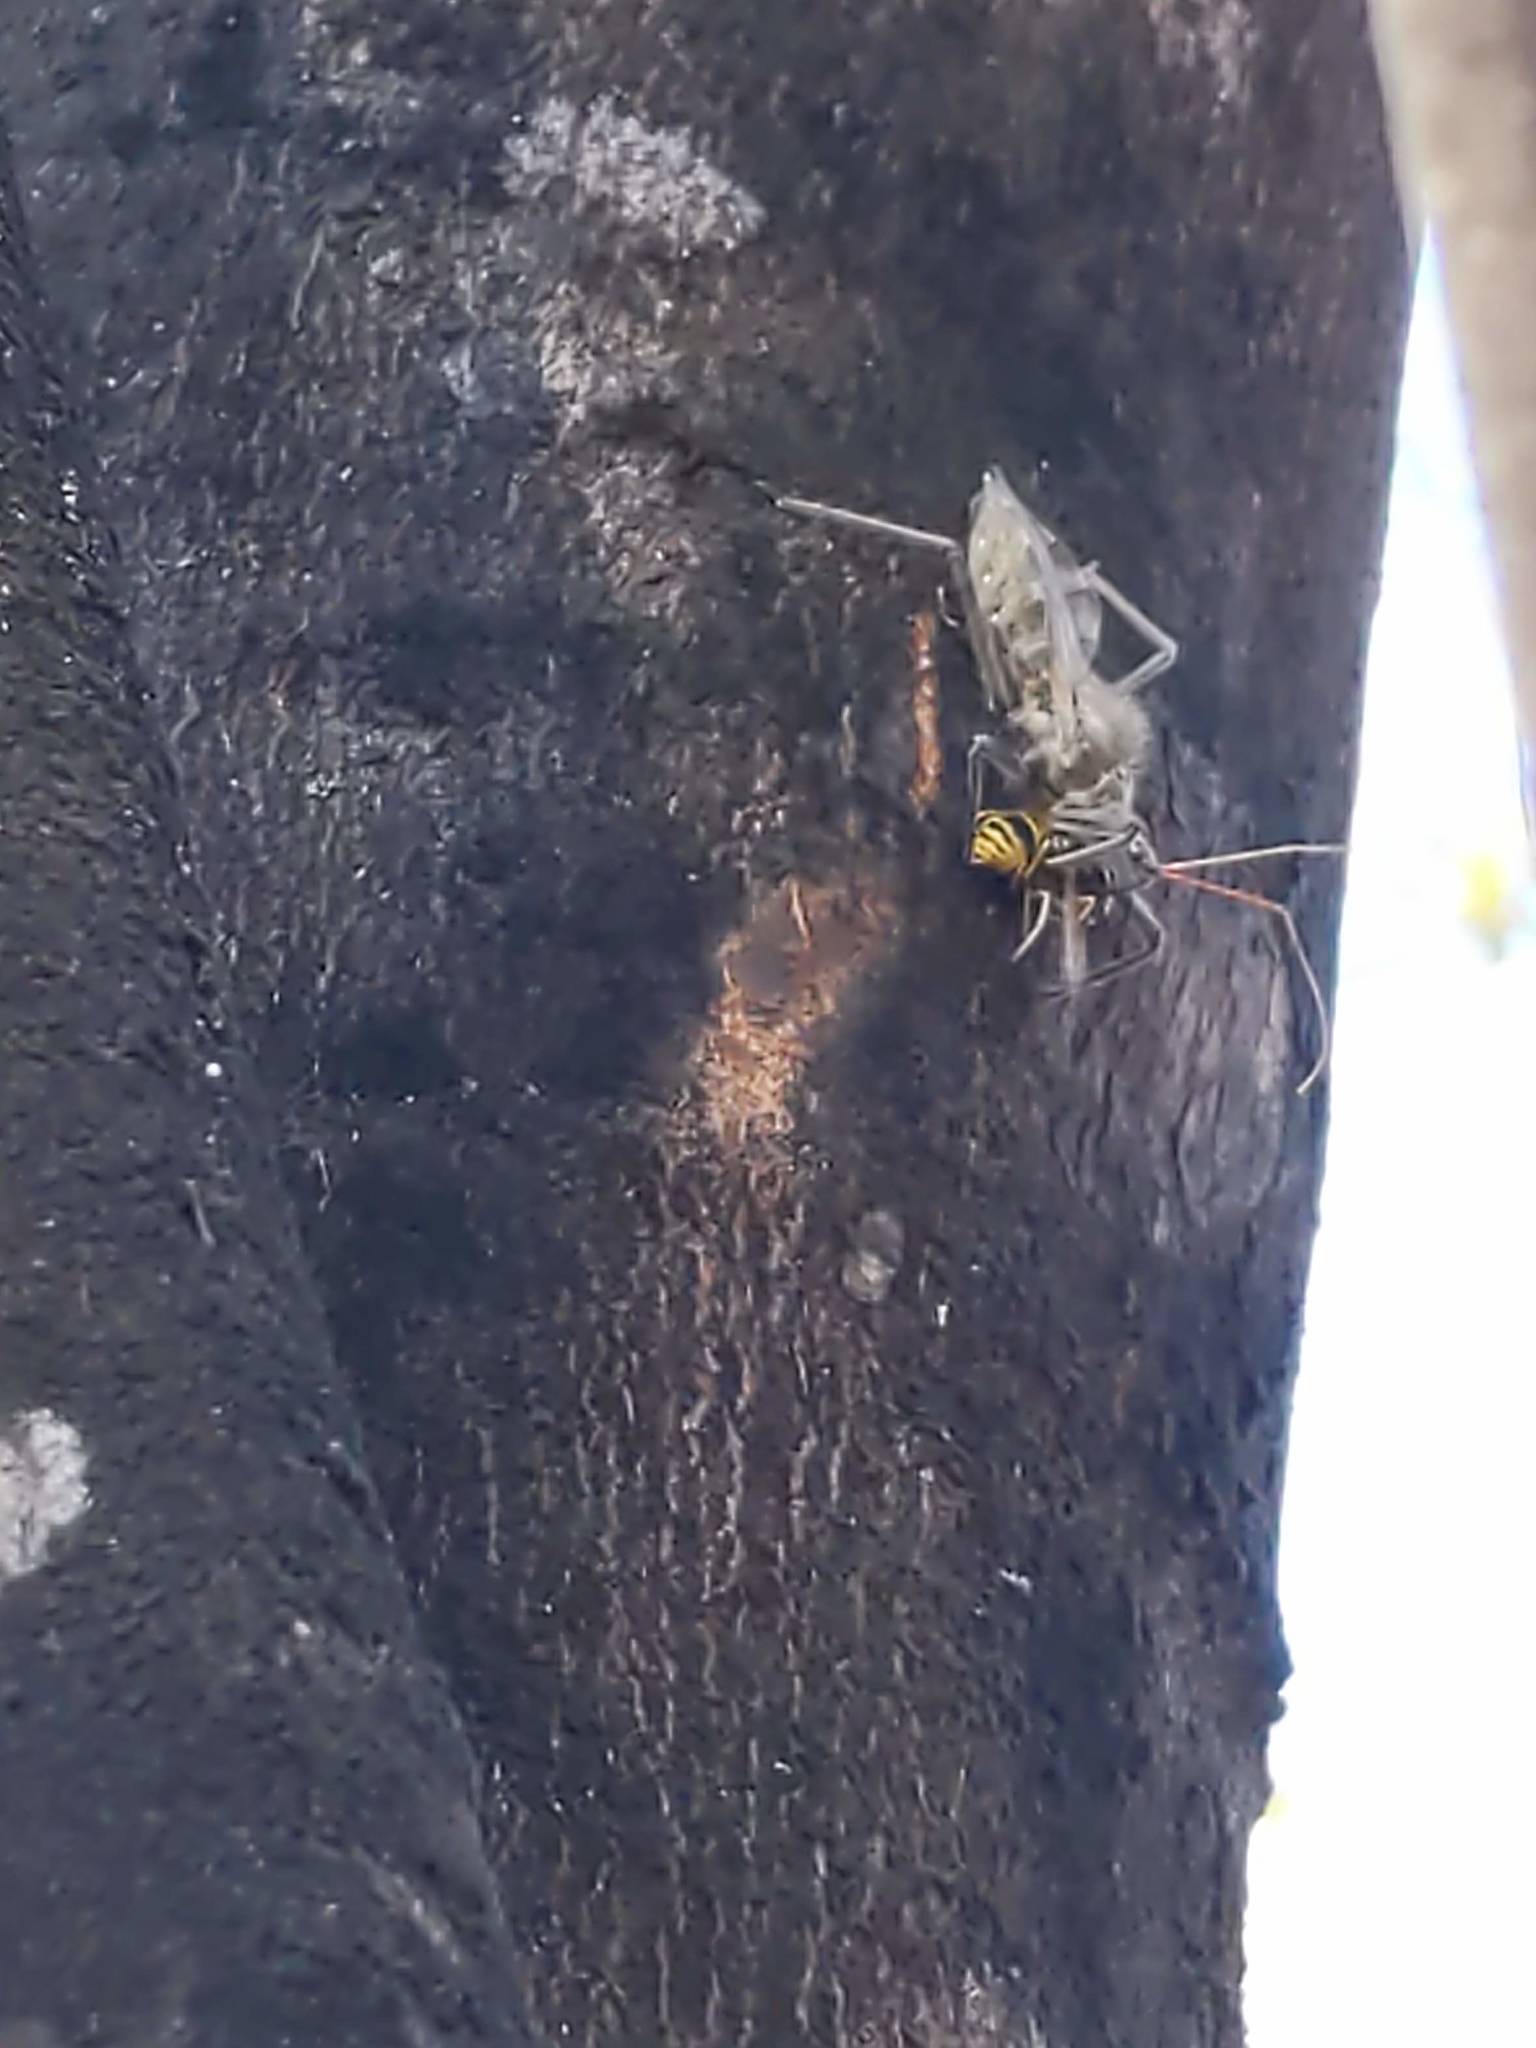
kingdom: Animalia
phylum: Arthropoda
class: Insecta
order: Hymenoptera
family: Vespidae
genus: Vespula
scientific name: Vespula
